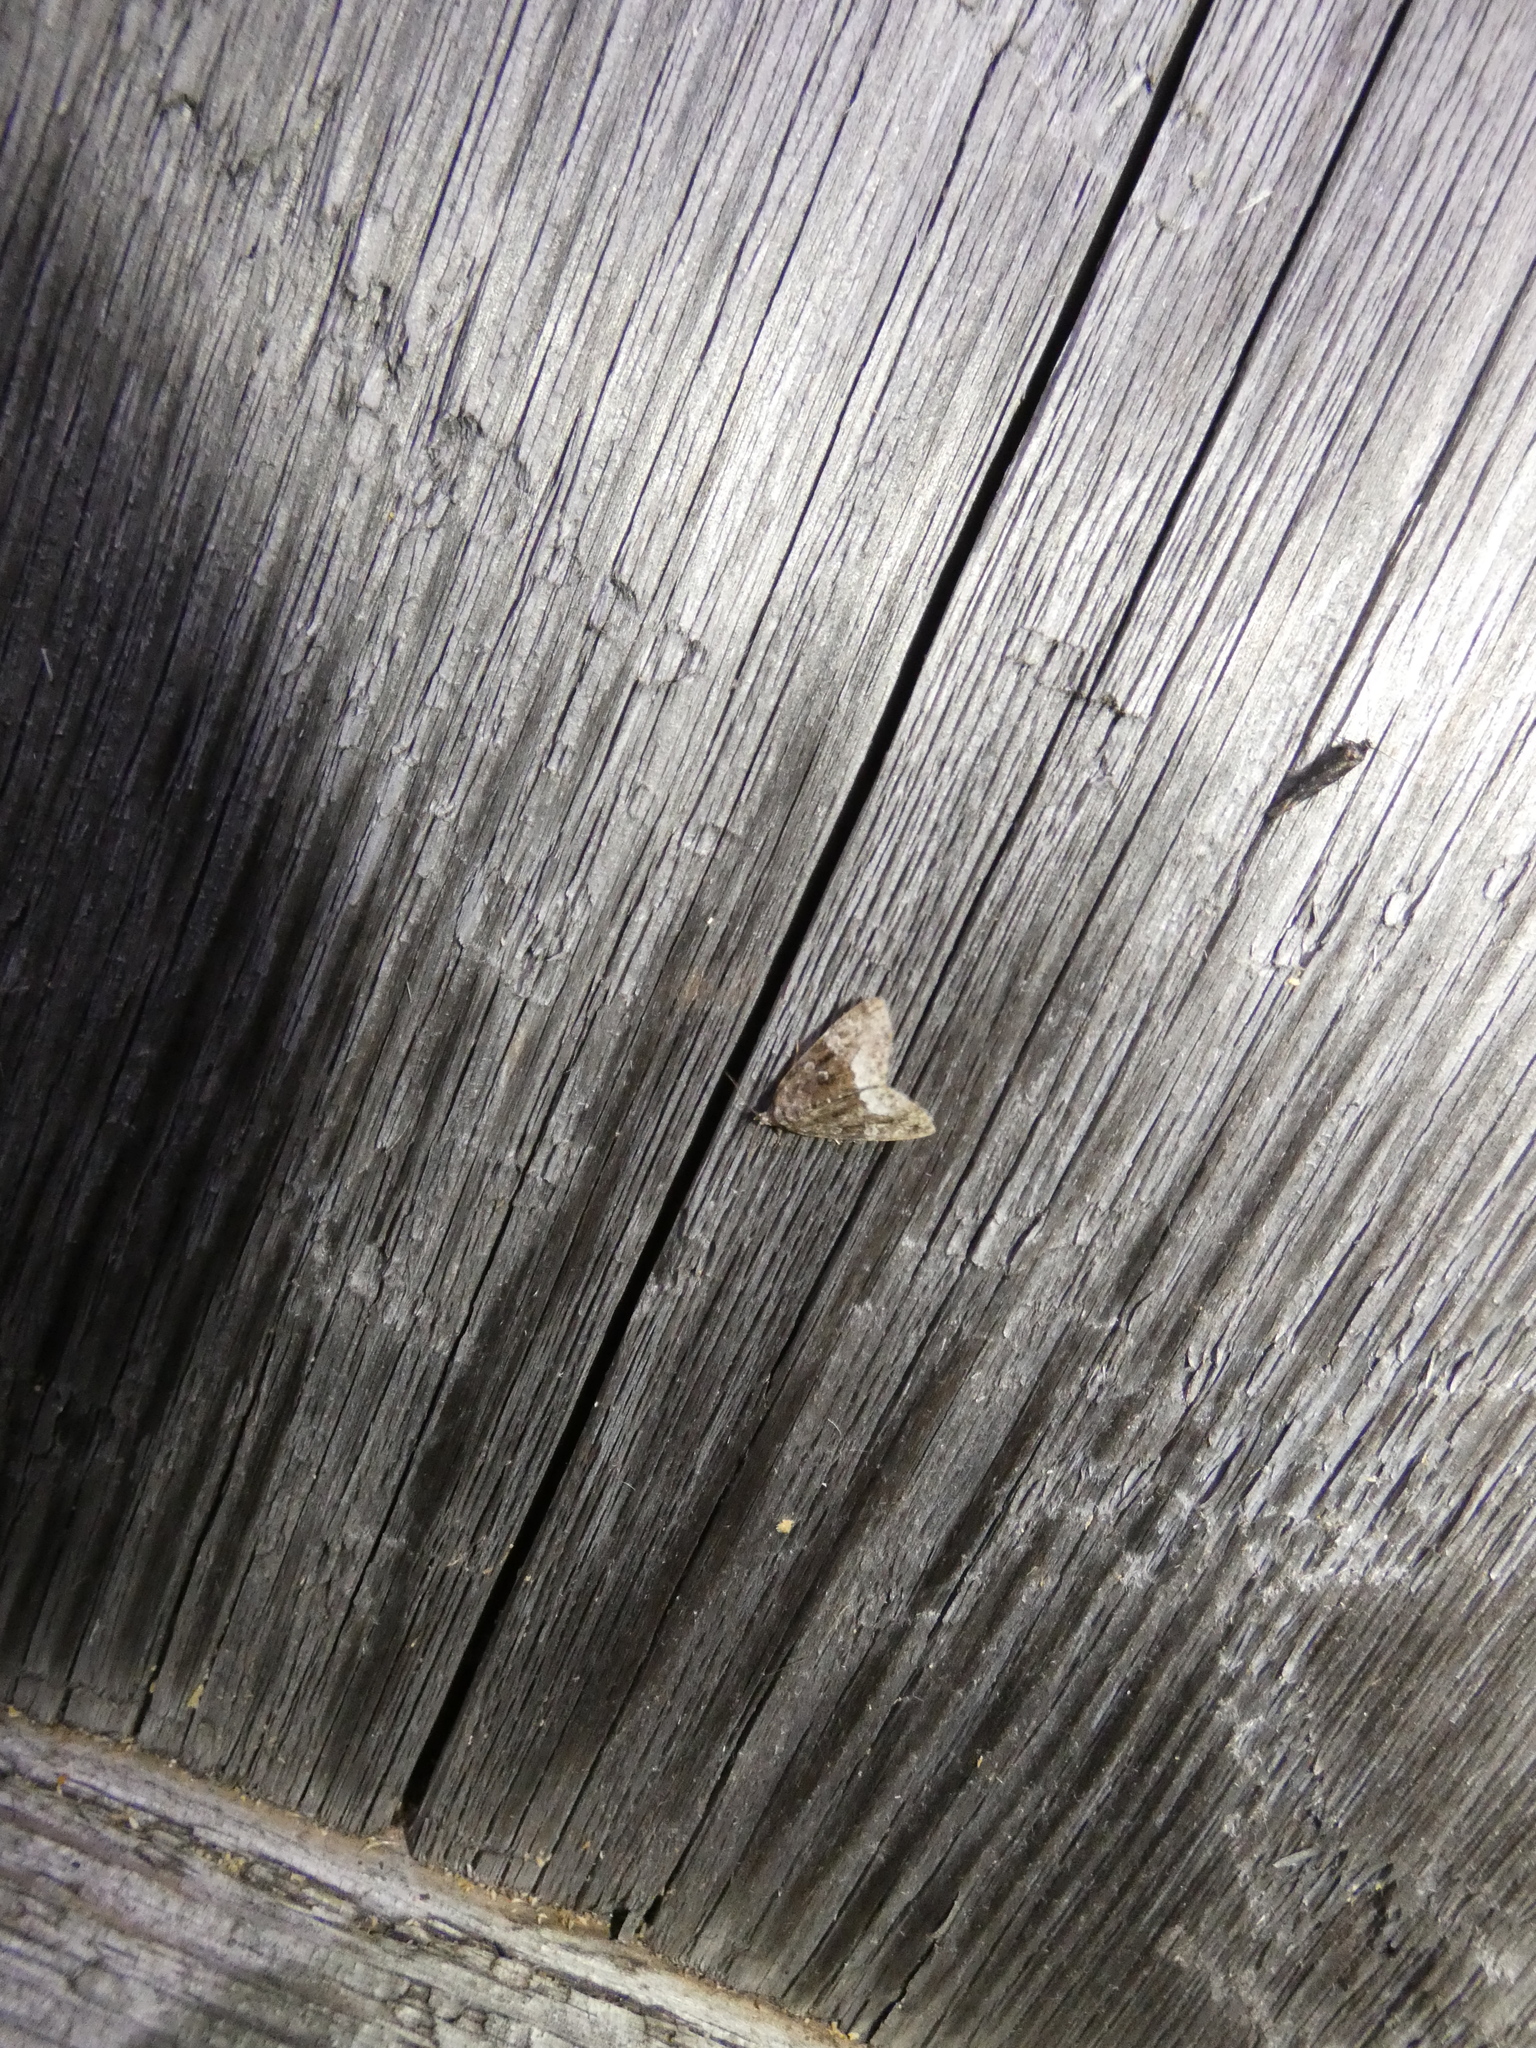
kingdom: Animalia
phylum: Arthropoda
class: Insecta
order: Lepidoptera
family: Noctuidae
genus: Deltote
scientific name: Deltote pygarga
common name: Marbled white spot
